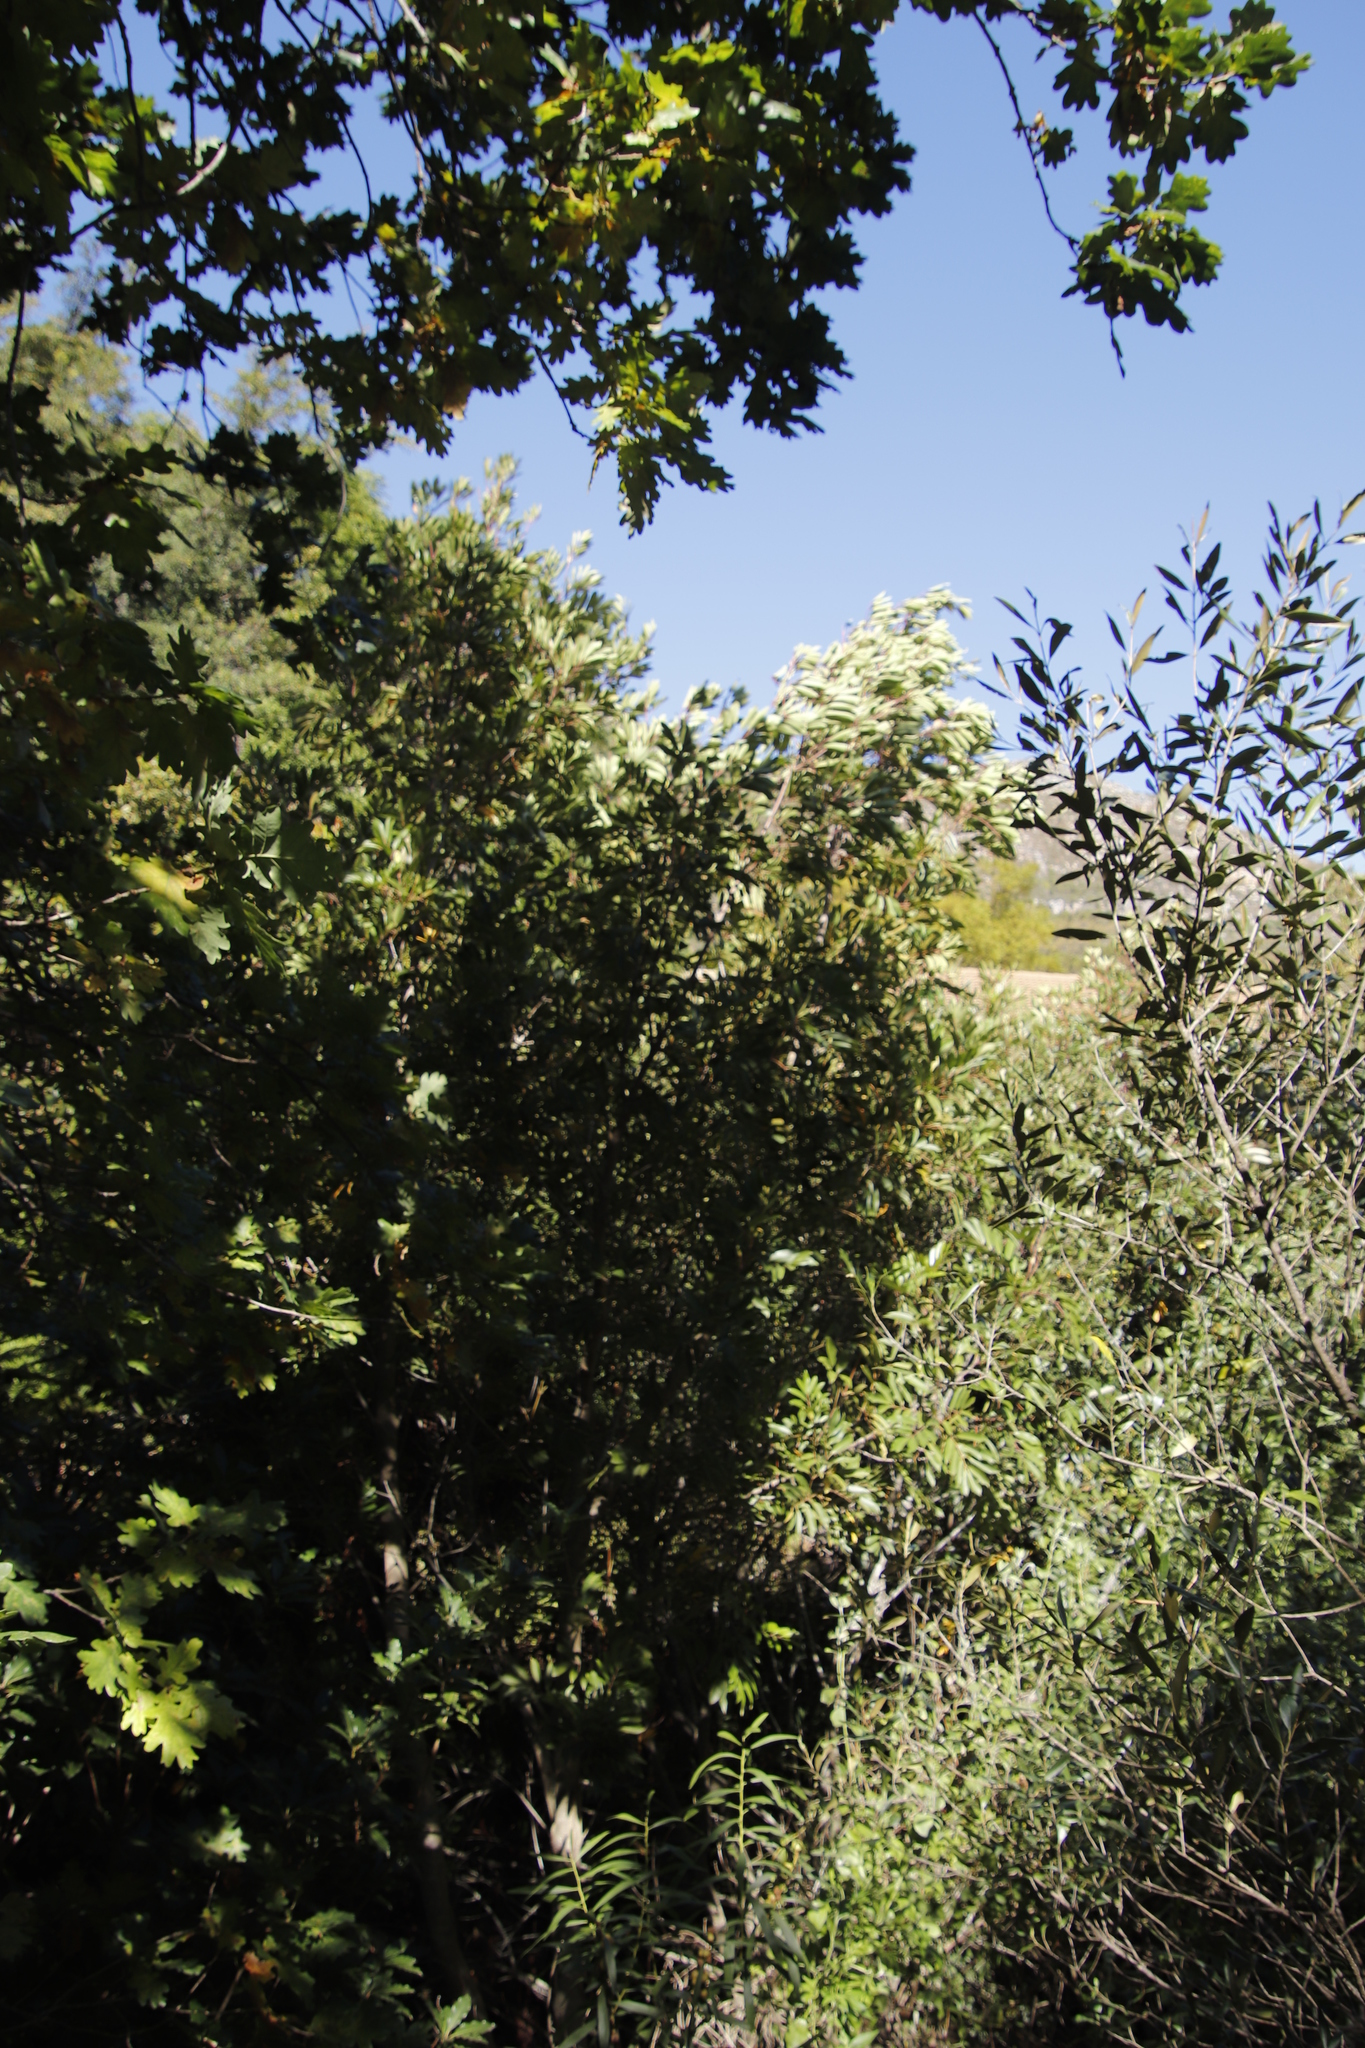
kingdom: Plantae
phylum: Tracheophyta
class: Magnoliopsida
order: Oxalidales
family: Cunoniaceae
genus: Cunonia
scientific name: Cunonia capensis
